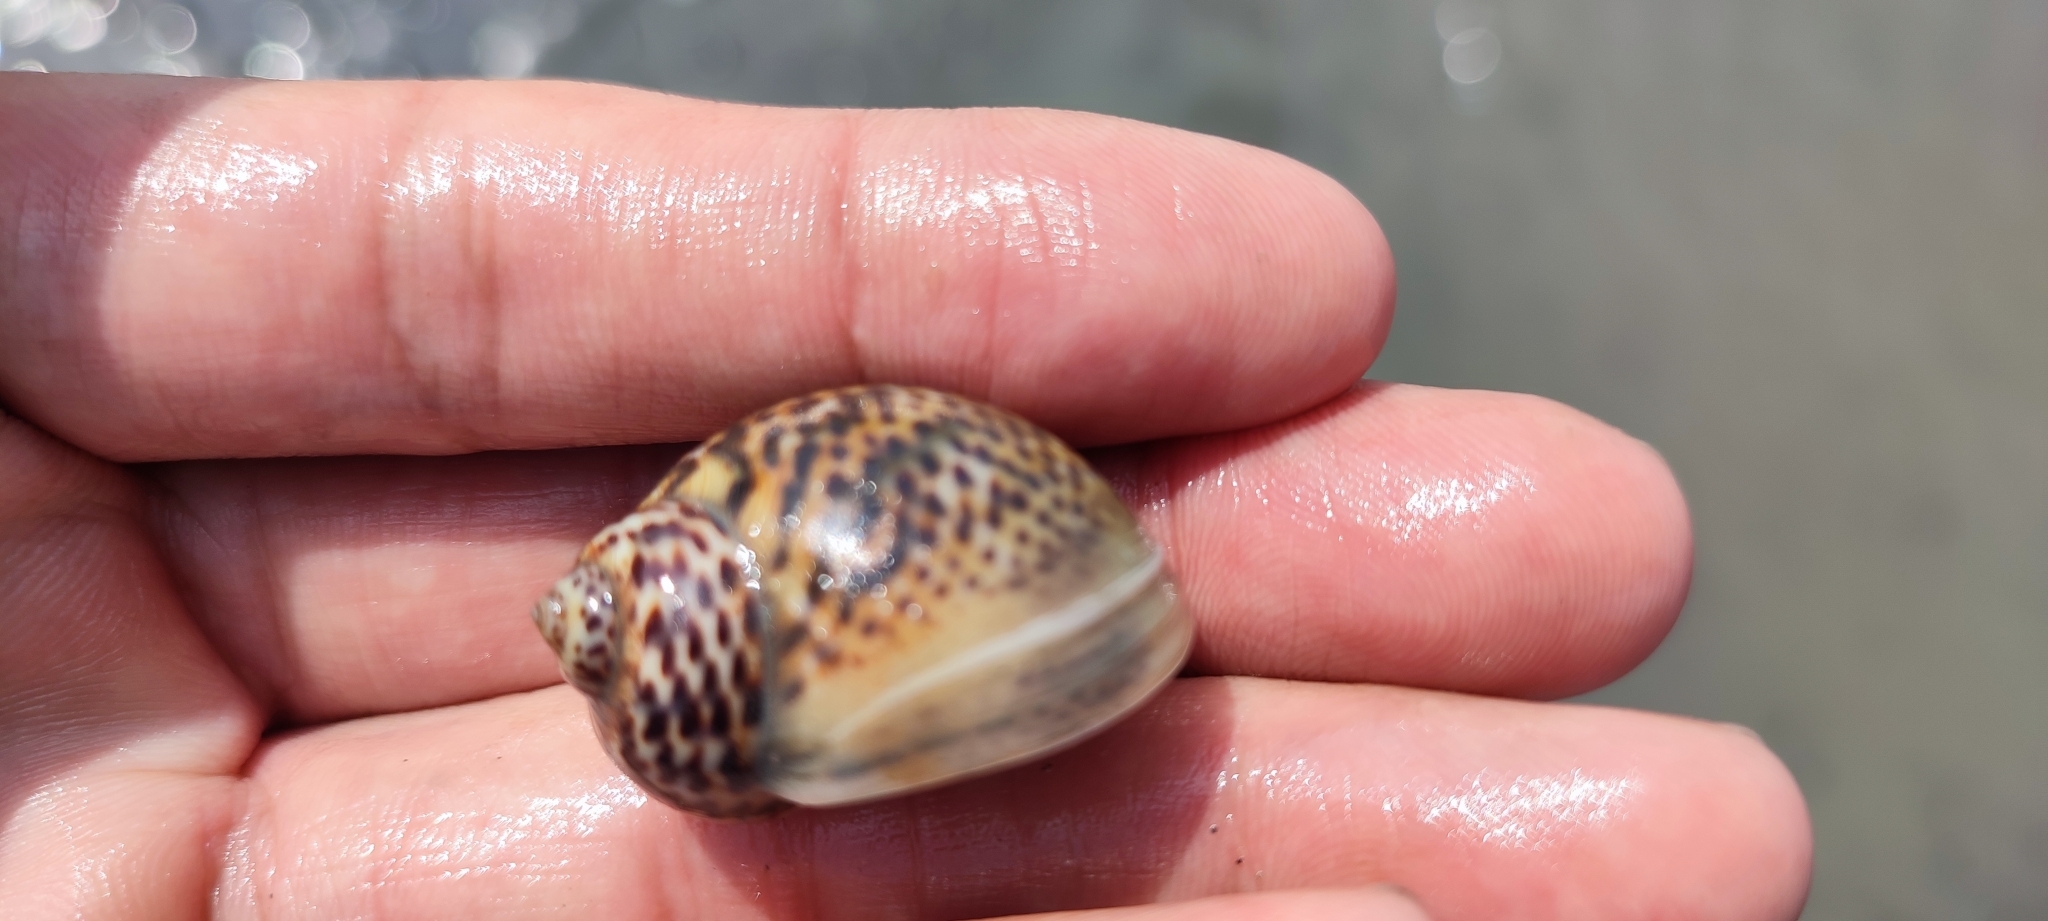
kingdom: Animalia
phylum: Mollusca
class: Gastropoda
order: Littorinimorpha
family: Naticidae
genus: Paratectonatica
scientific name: Paratectonatica tigrina
